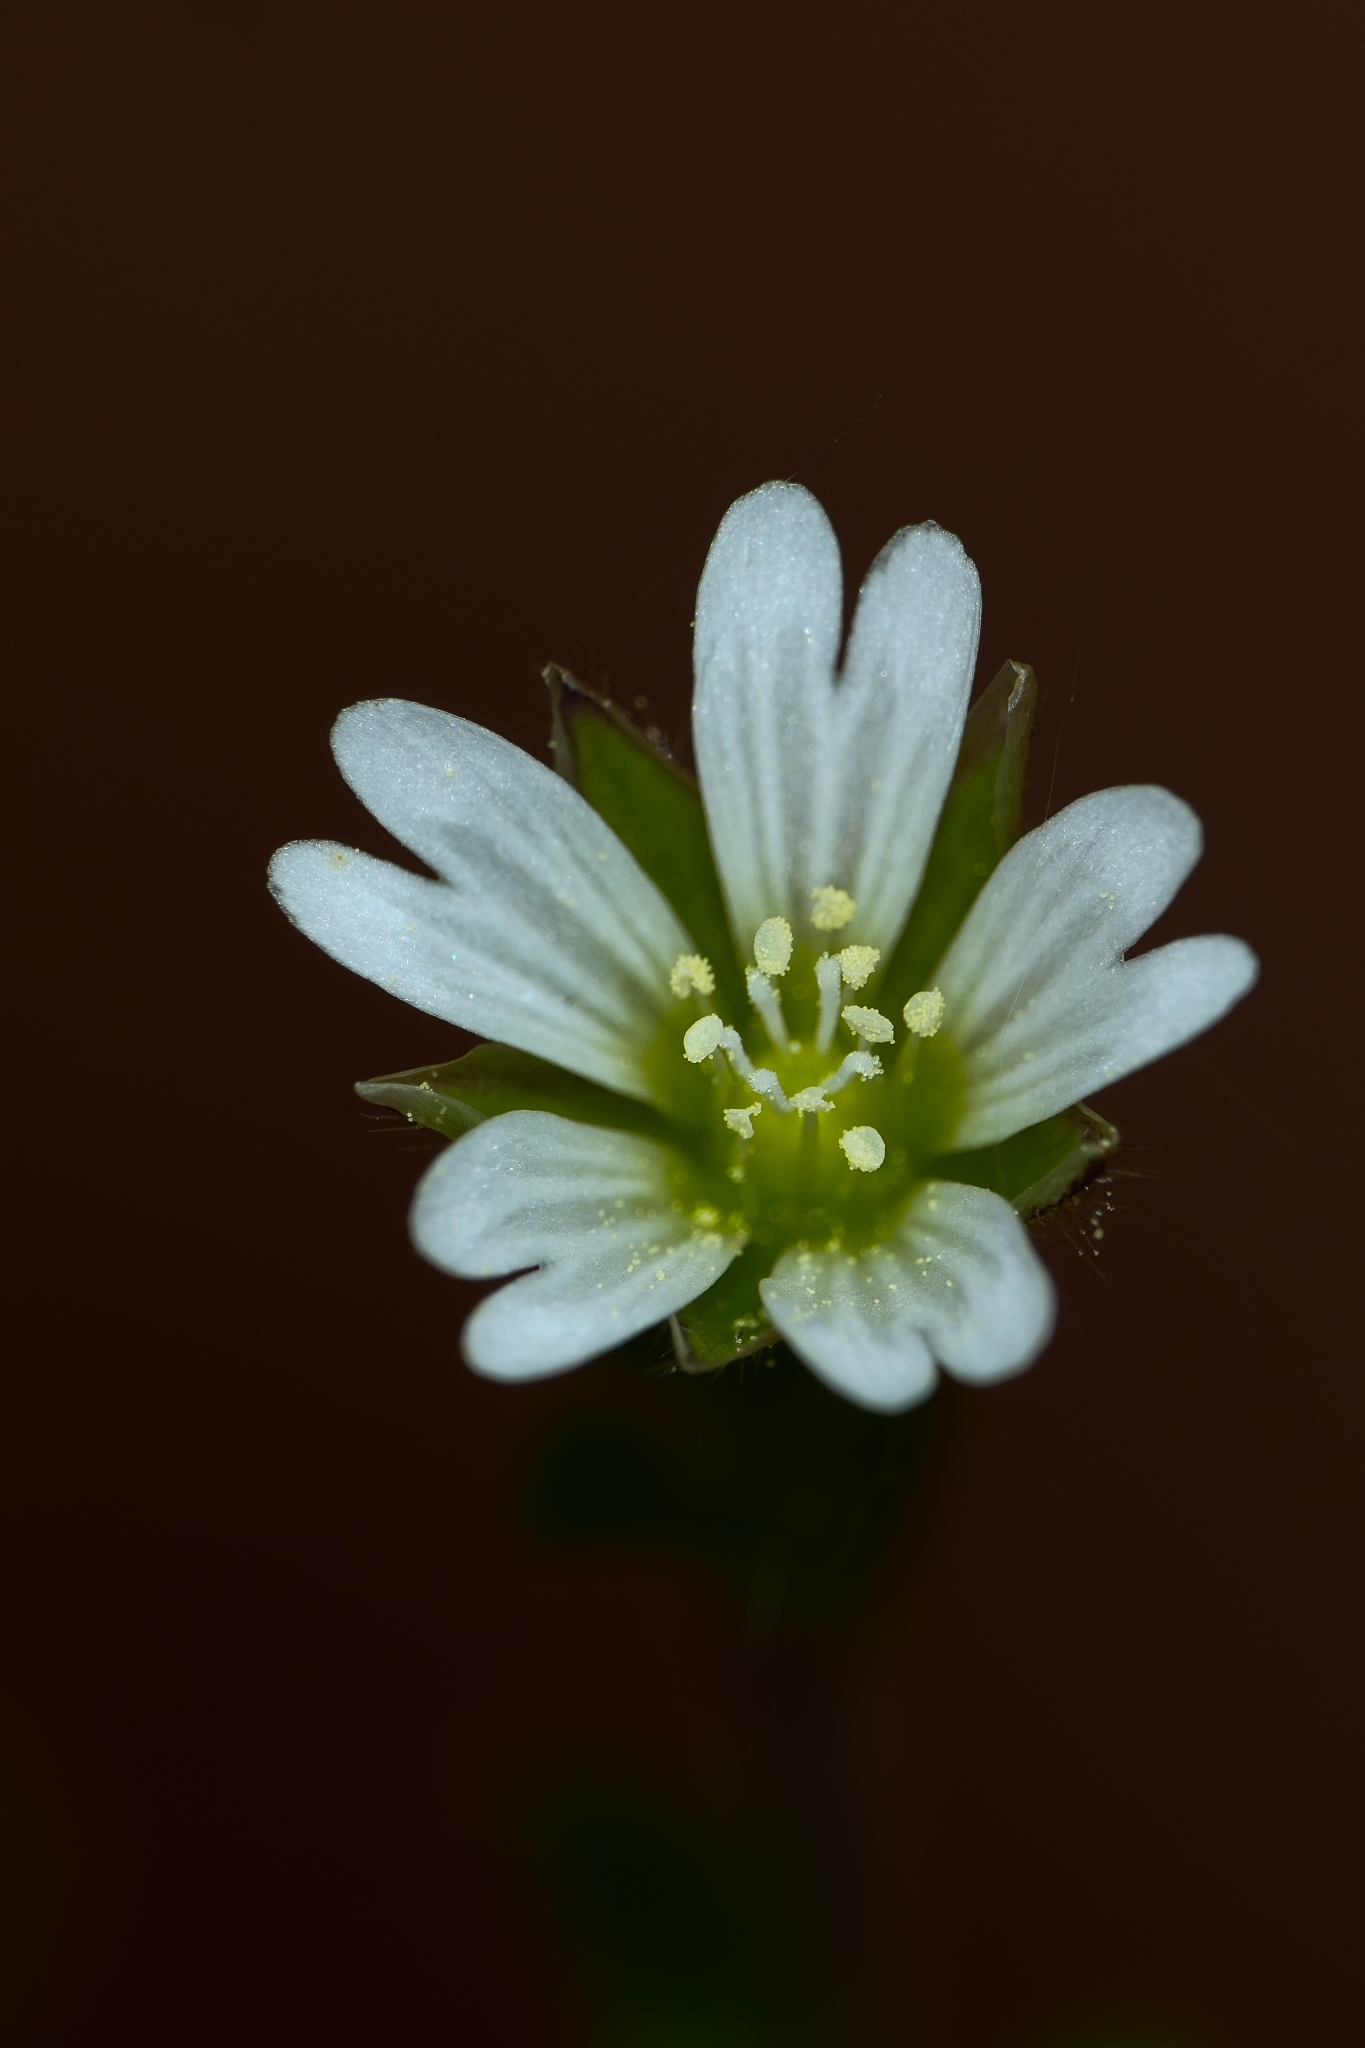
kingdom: Plantae
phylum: Tracheophyta
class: Magnoliopsida
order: Caryophyllales
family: Caryophyllaceae
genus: Cerastium
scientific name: Cerastium holosteoides
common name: Big chickweed
